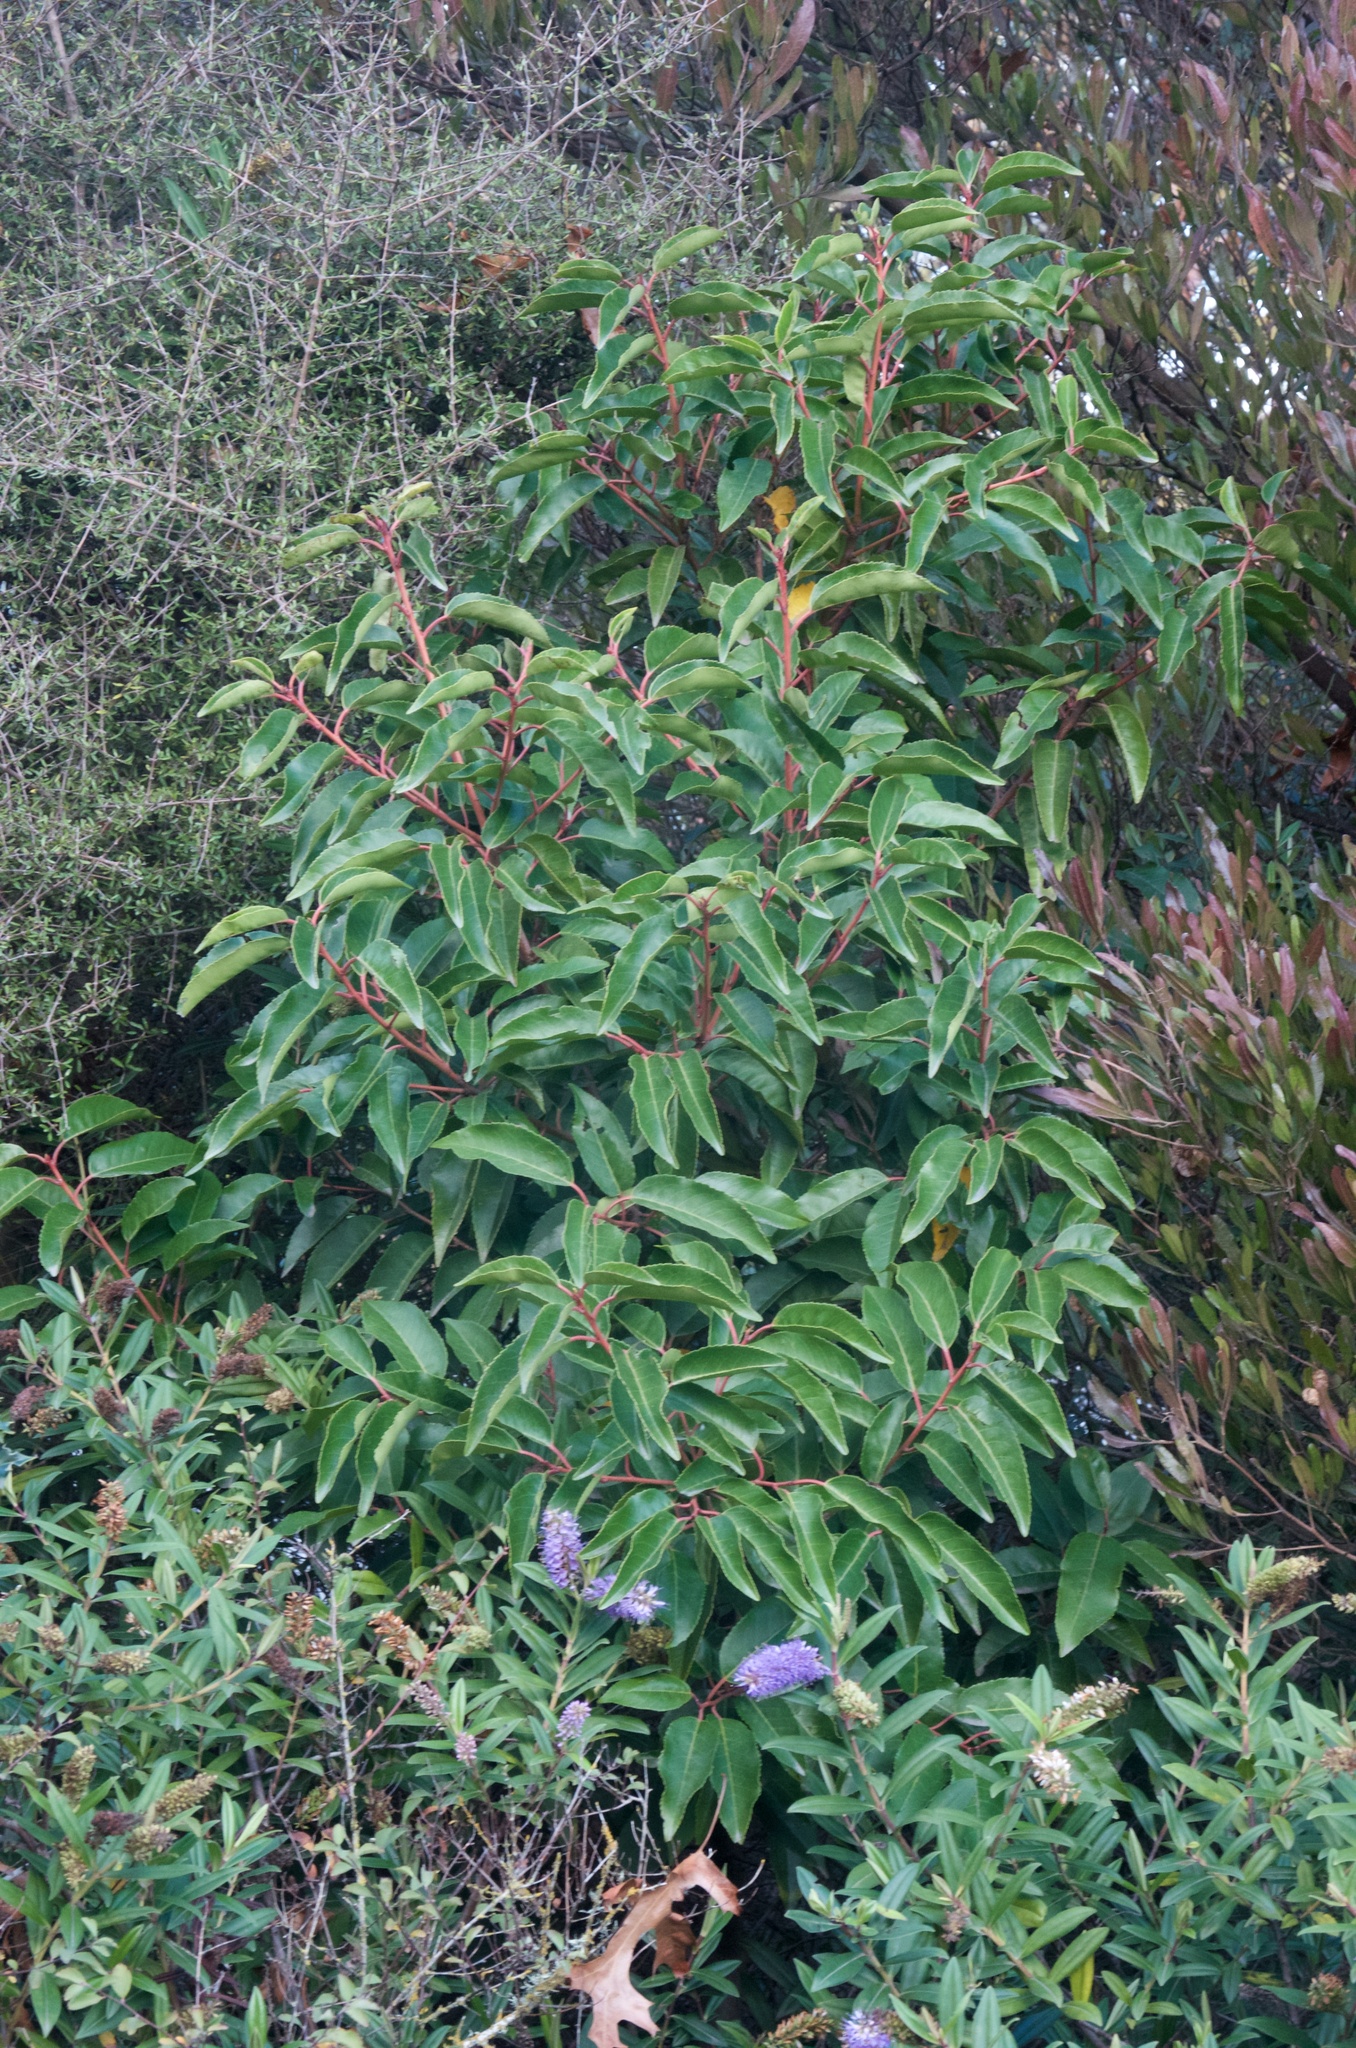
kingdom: Plantae
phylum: Tracheophyta
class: Magnoliopsida
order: Rosales
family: Rosaceae
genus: Prunus
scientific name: Prunus lusitanica
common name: Portugal laurel
